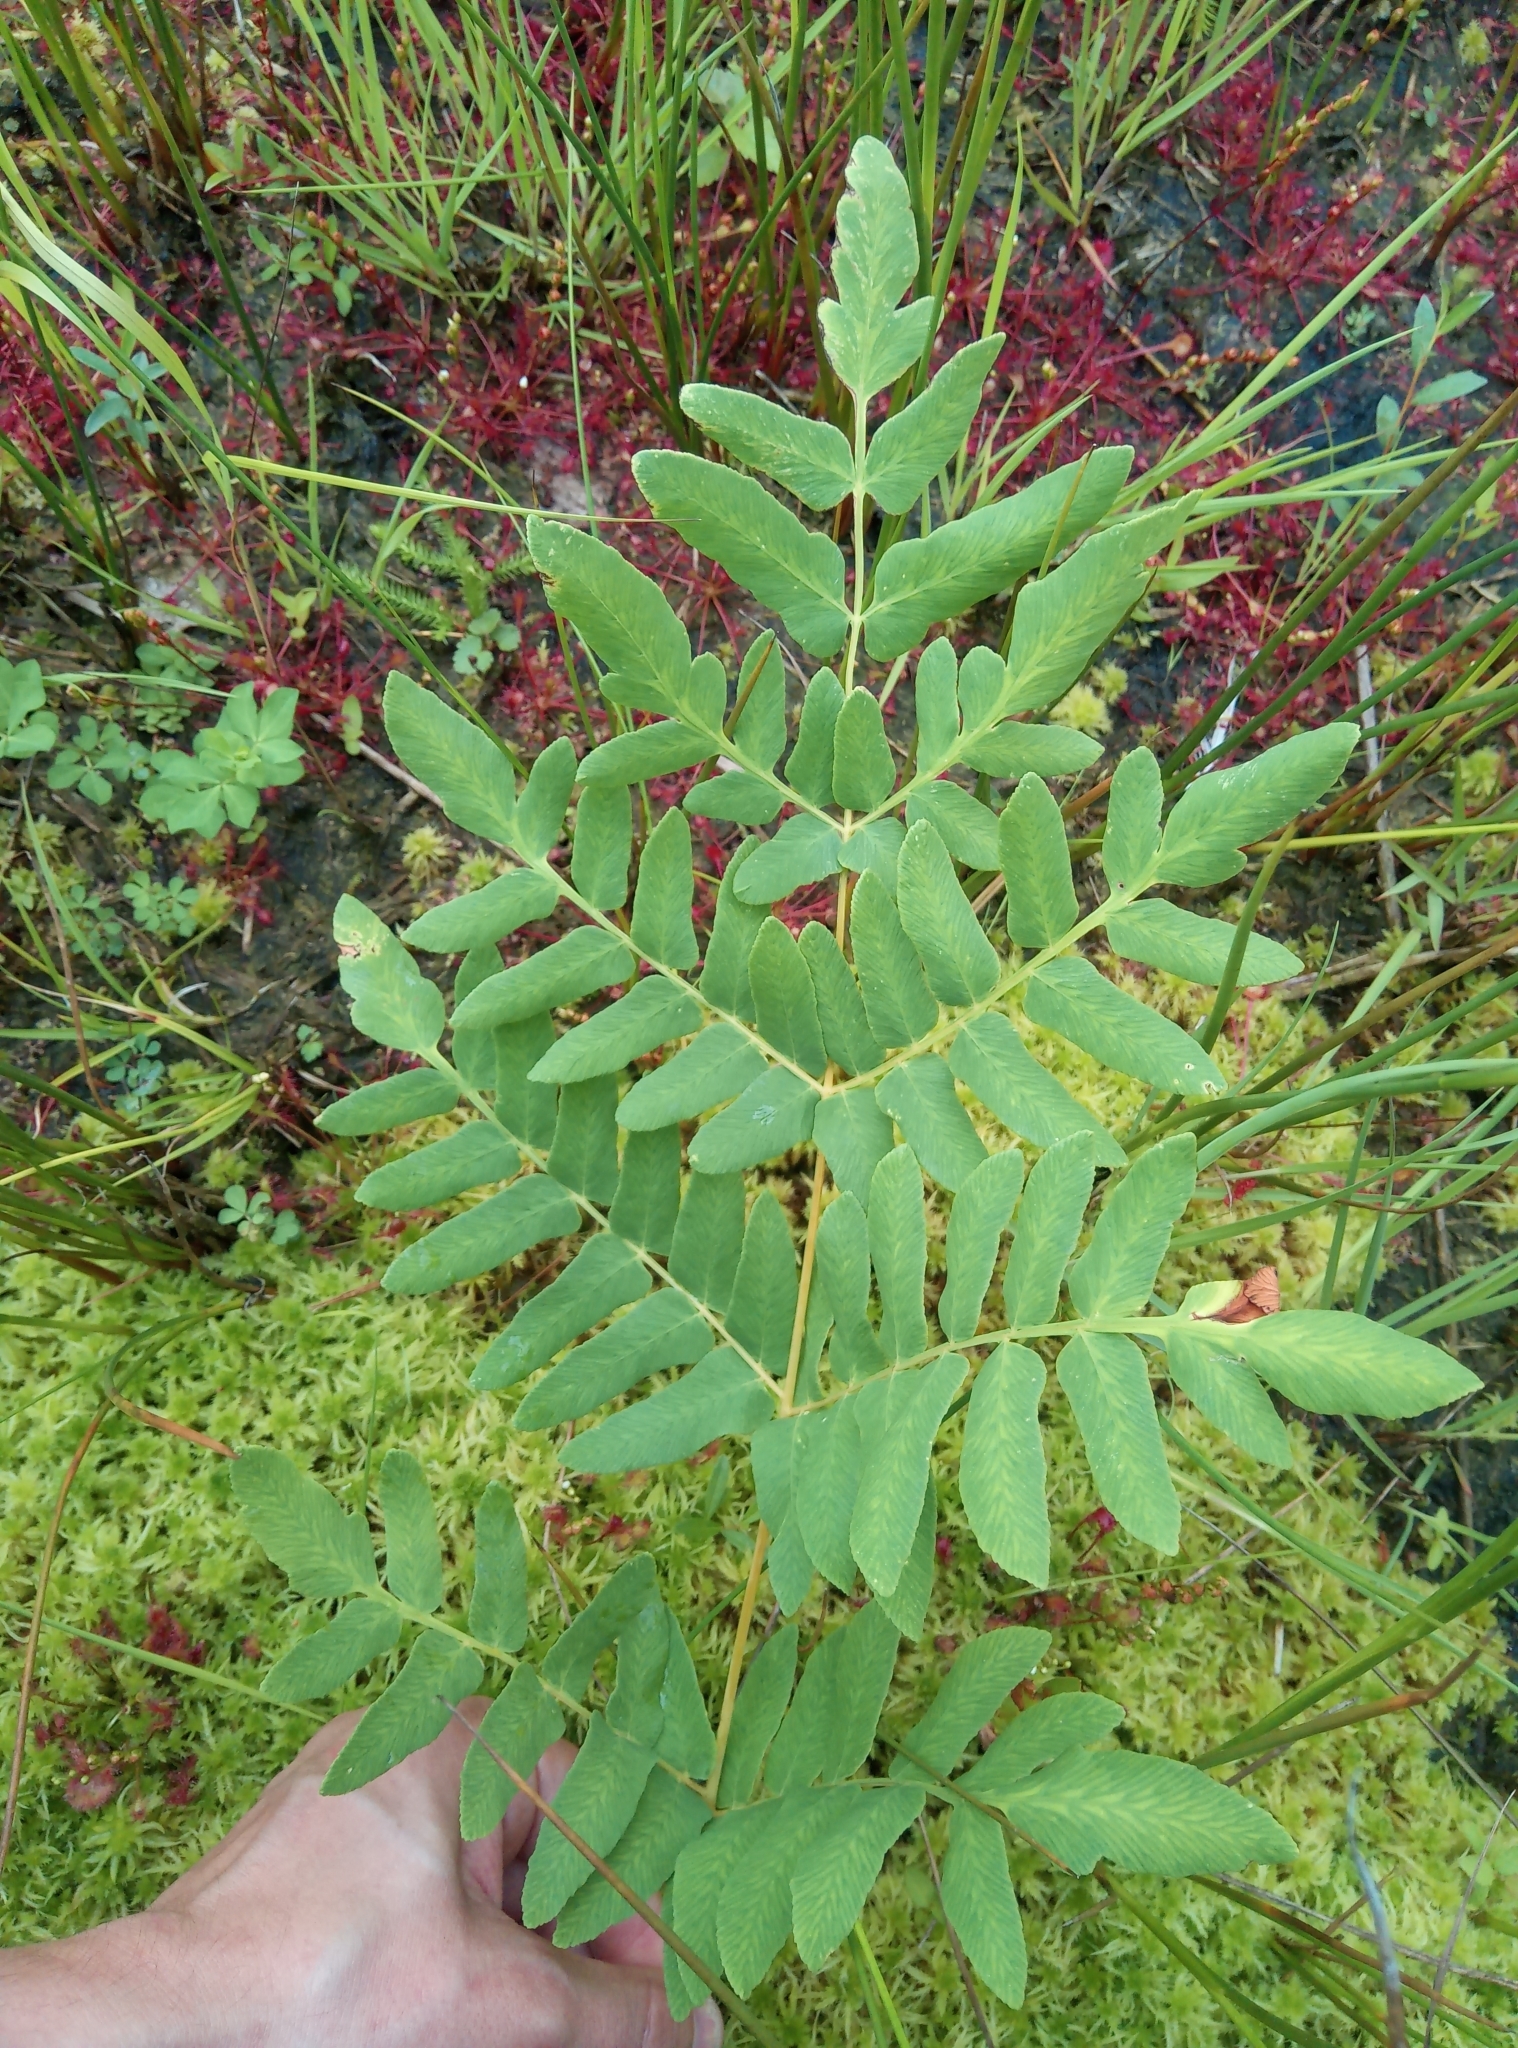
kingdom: Plantae
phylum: Tracheophyta
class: Polypodiopsida
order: Osmundales
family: Osmundaceae
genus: Osmunda
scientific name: Osmunda regalis
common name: Royal fern
